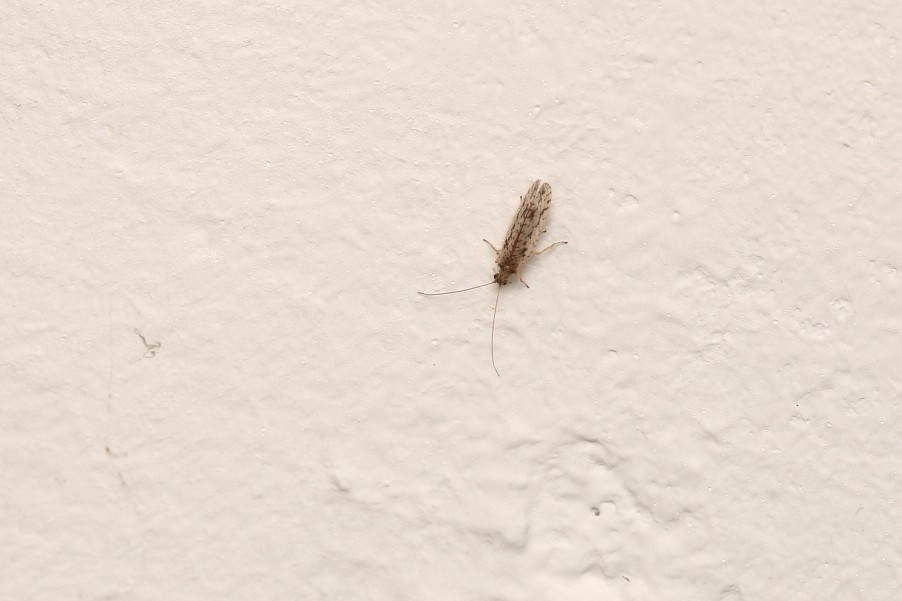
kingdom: Animalia
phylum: Arthropoda
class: Insecta
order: Neuroptera
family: Hemerobiidae
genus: Micromus
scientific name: Micromus variegatus
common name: Brown lacewing
